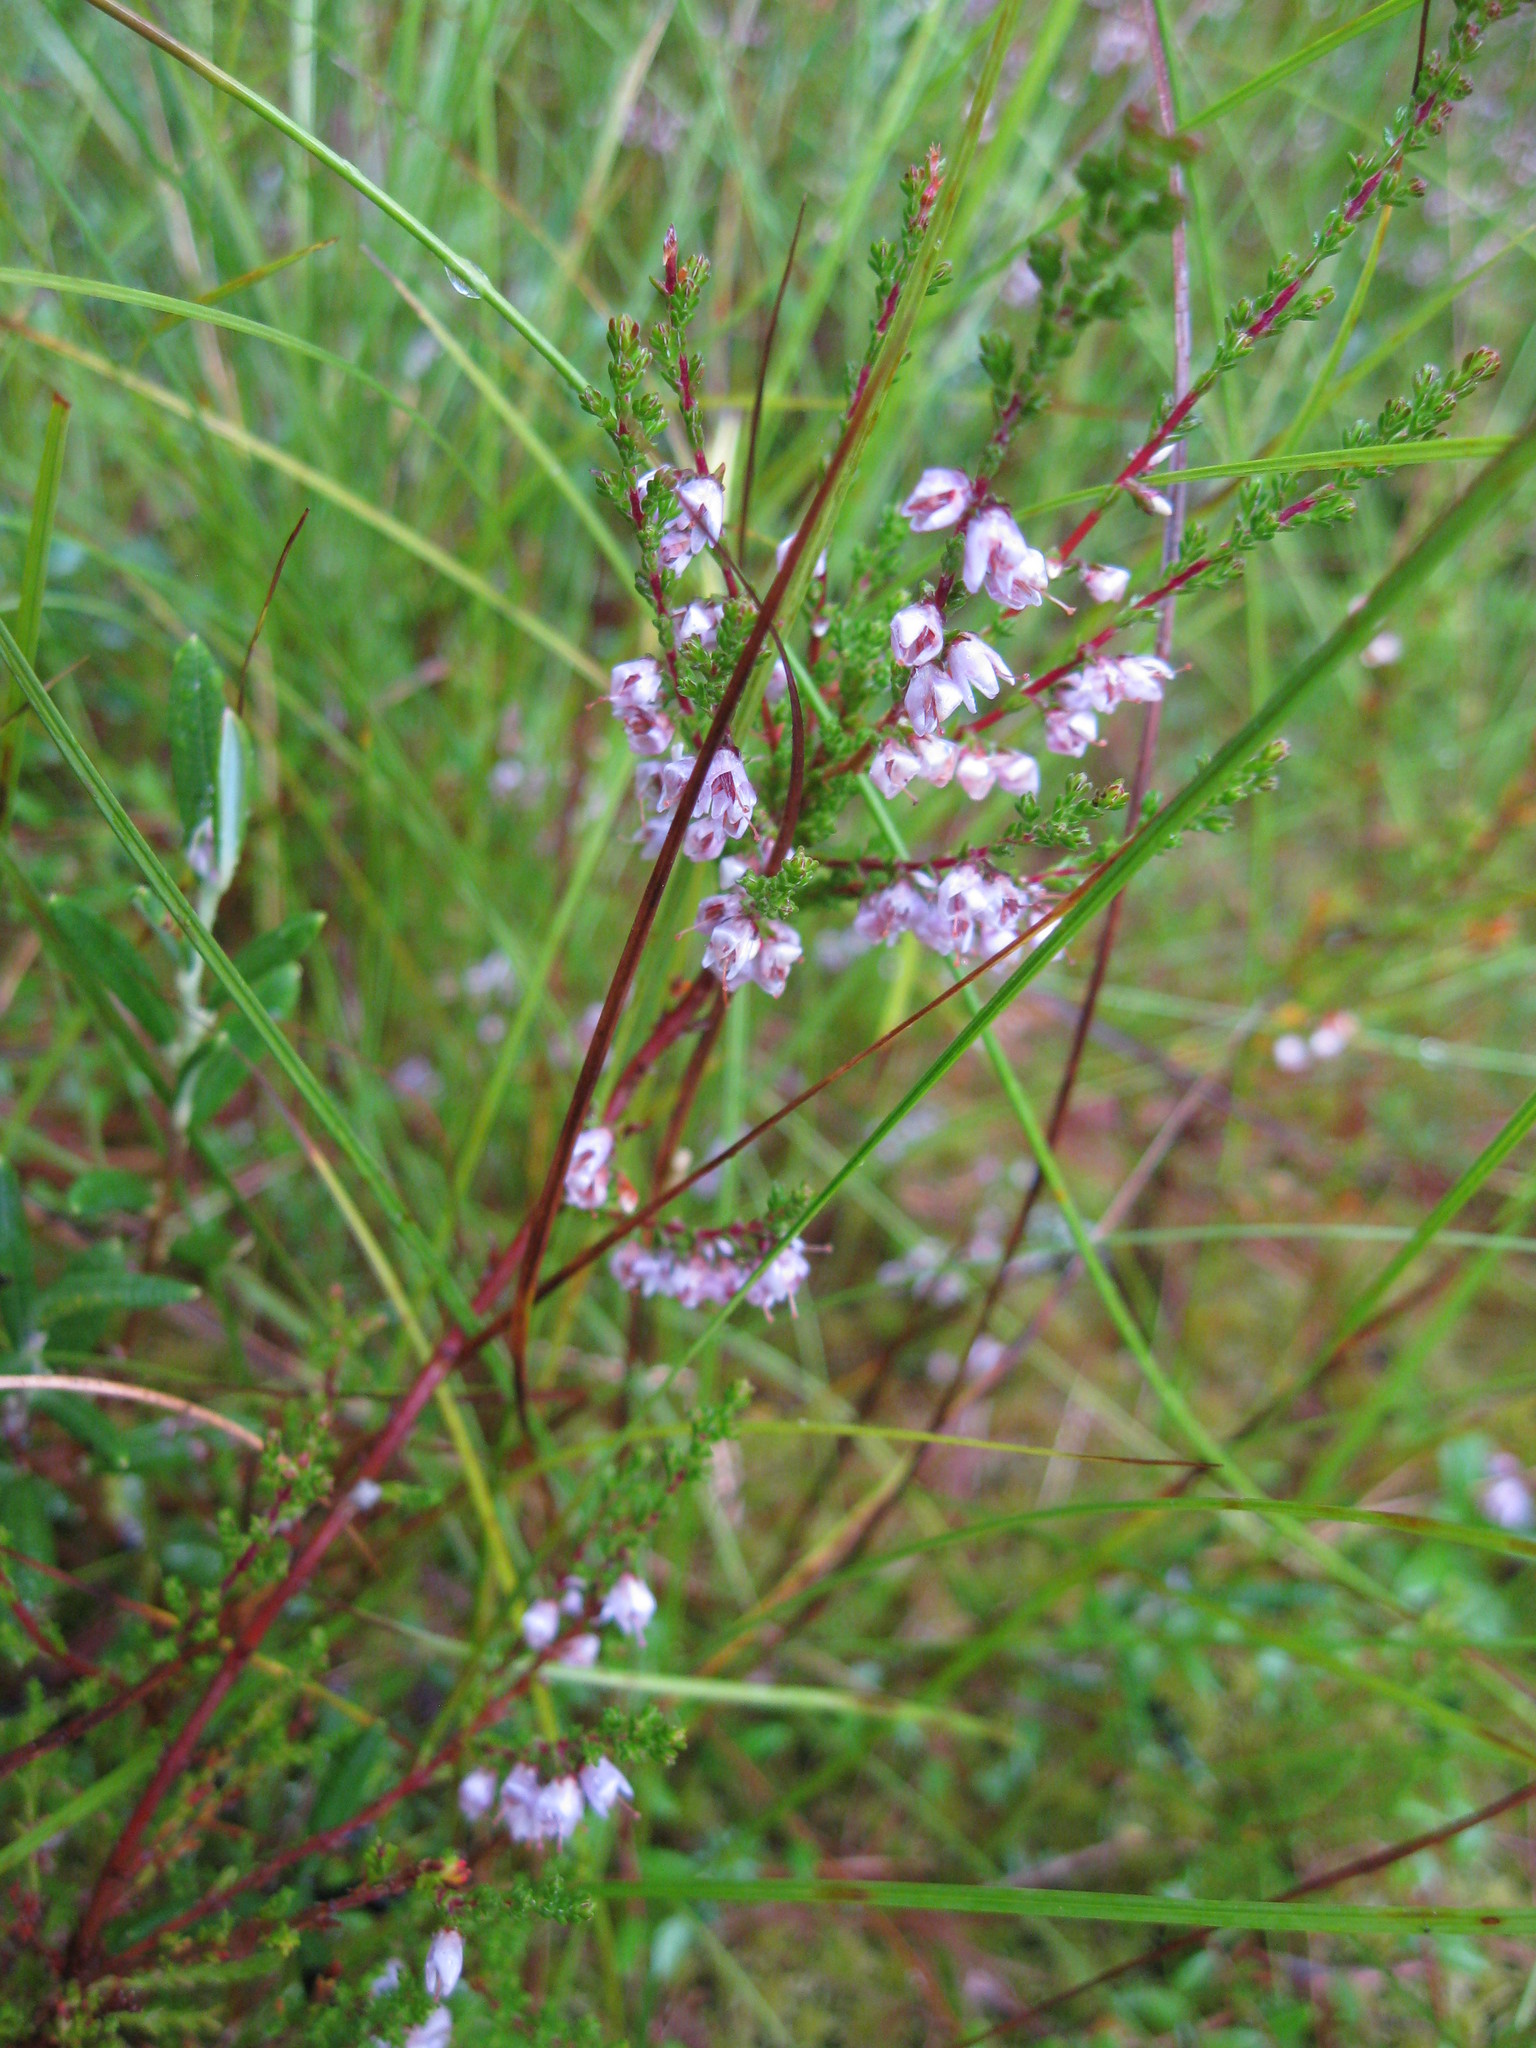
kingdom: Plantae
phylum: Tracheophyta
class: Magnoliopsida
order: Ericales
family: Ericaceae
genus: Calluna
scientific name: Calluna vulgaris
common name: Heather
